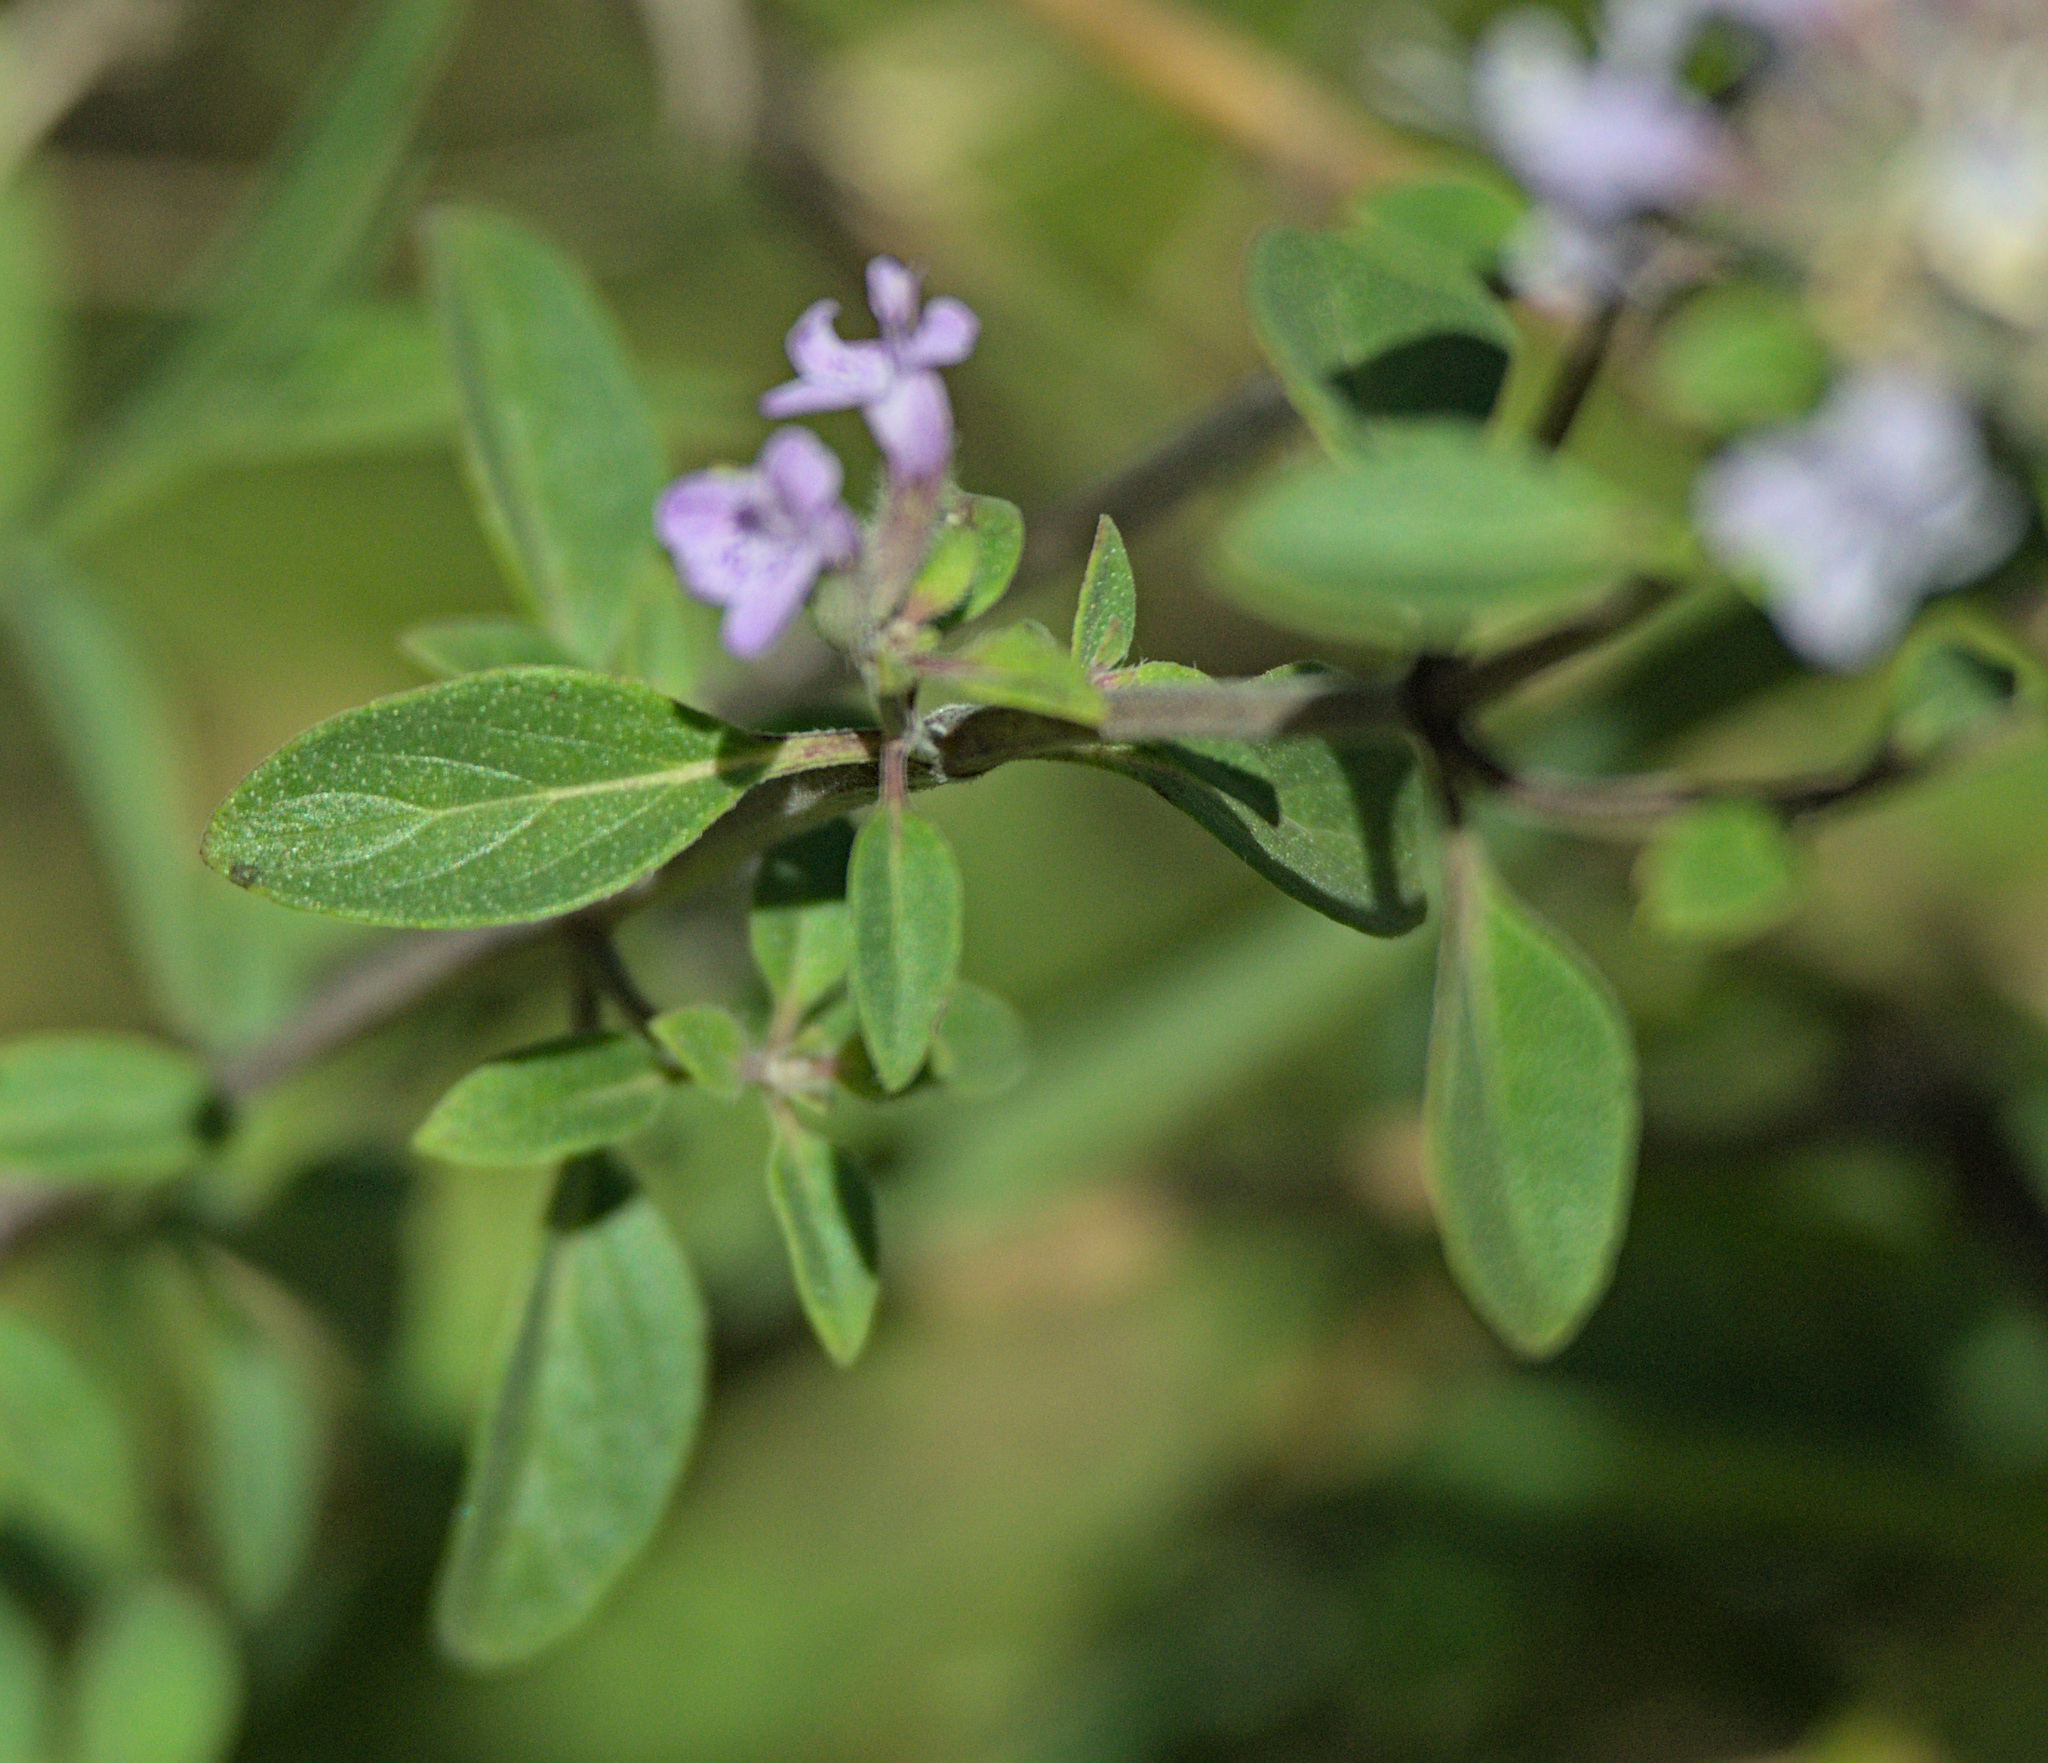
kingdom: Plantae
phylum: Tracheophyta
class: Magnoliopsida
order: Lamiales
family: Lamiaceae
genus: Ziziphora
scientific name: Ziziphora clinopodioides
